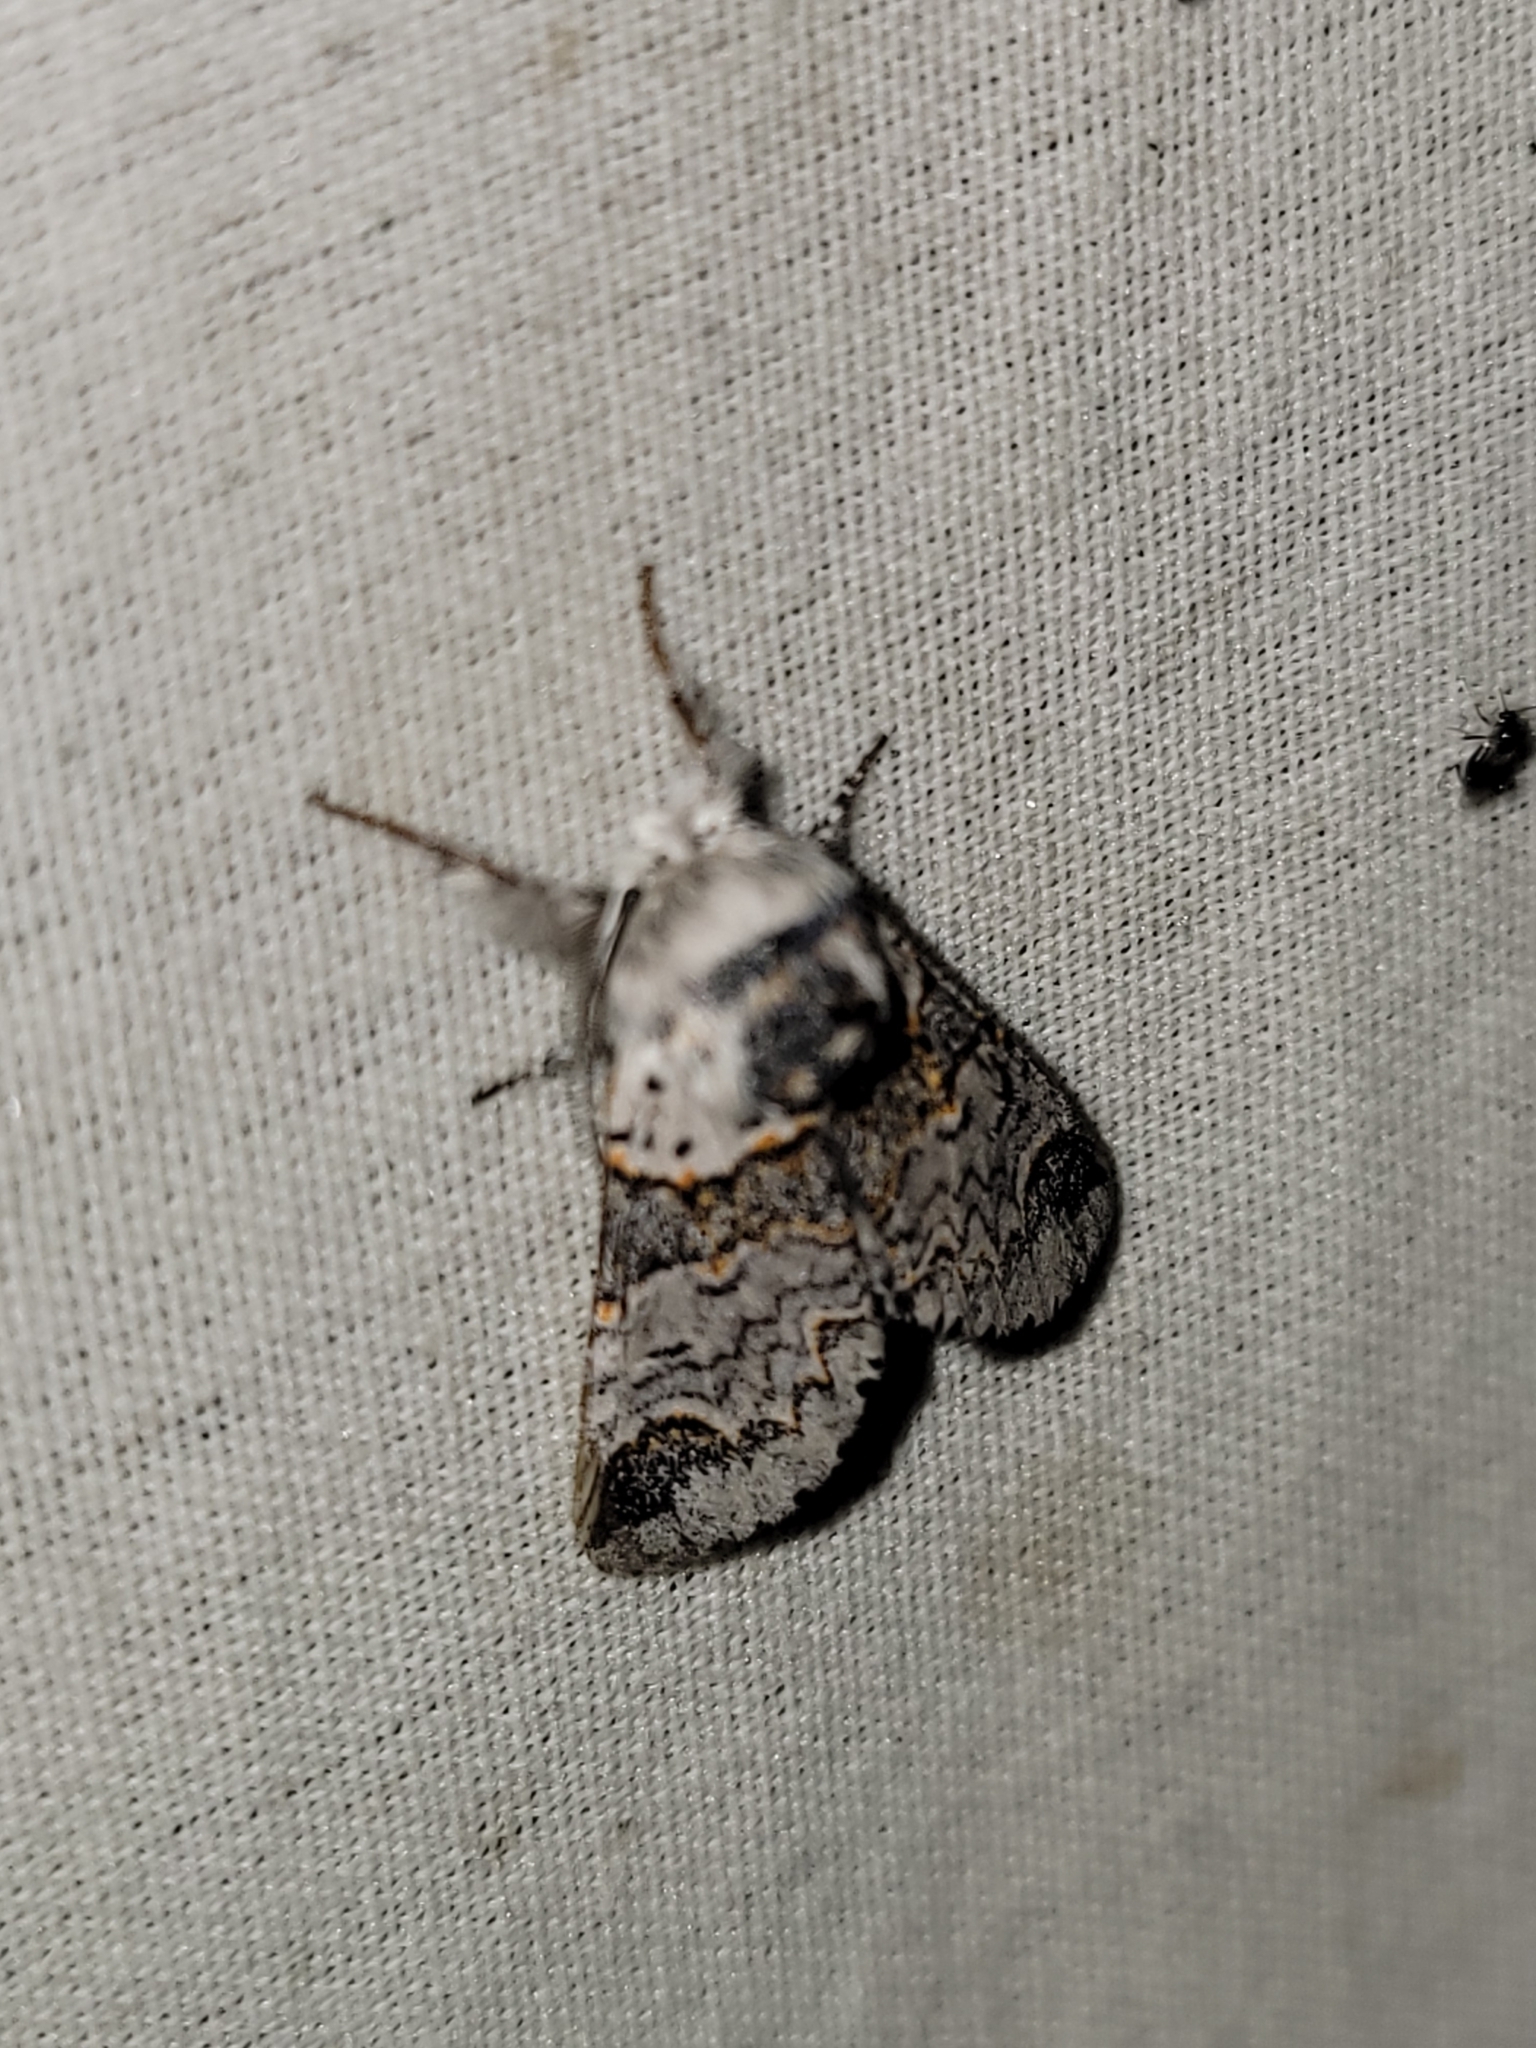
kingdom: Animalia
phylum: Arthropoda
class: Insecta
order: Lepidoptera
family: Notodontidae
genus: Furcula
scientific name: Furcula occidentalis
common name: Western furcula moth
